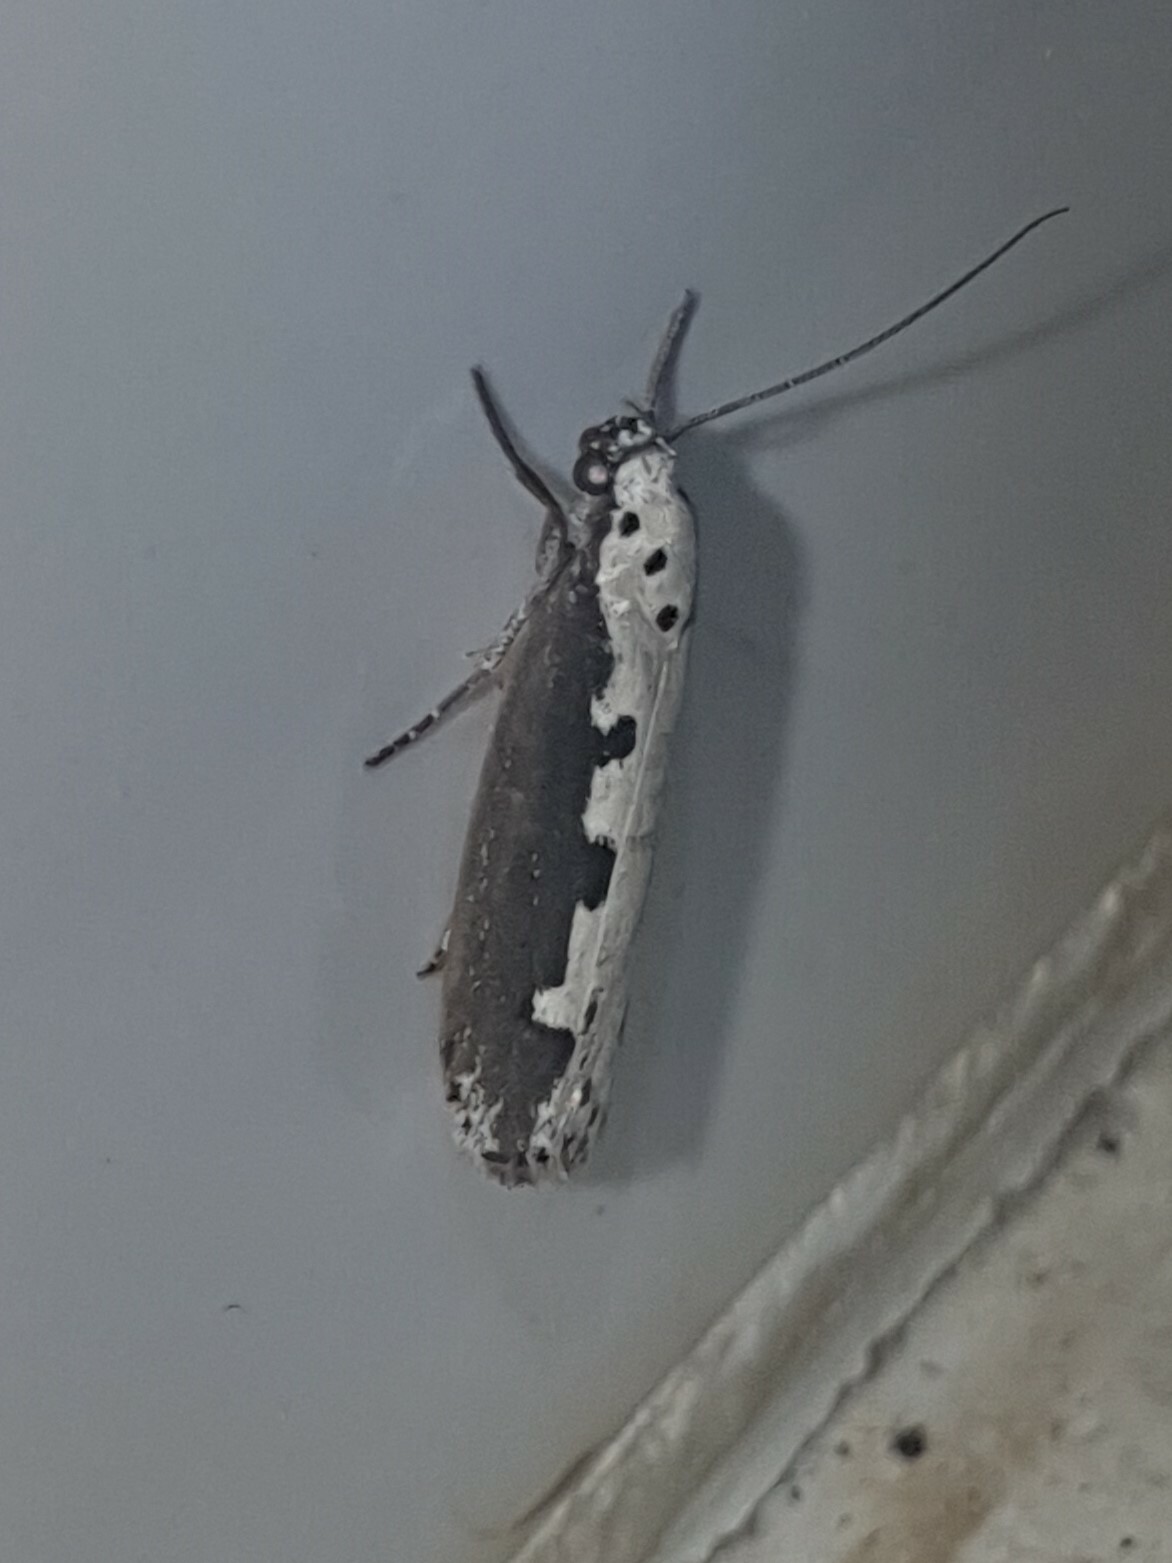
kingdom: Animalia
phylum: Arthropoda
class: Insecta
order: Lepidoptera
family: Ethmiidae
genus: Ethmia
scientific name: Ethmia bipunctella
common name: Bordered ermel
